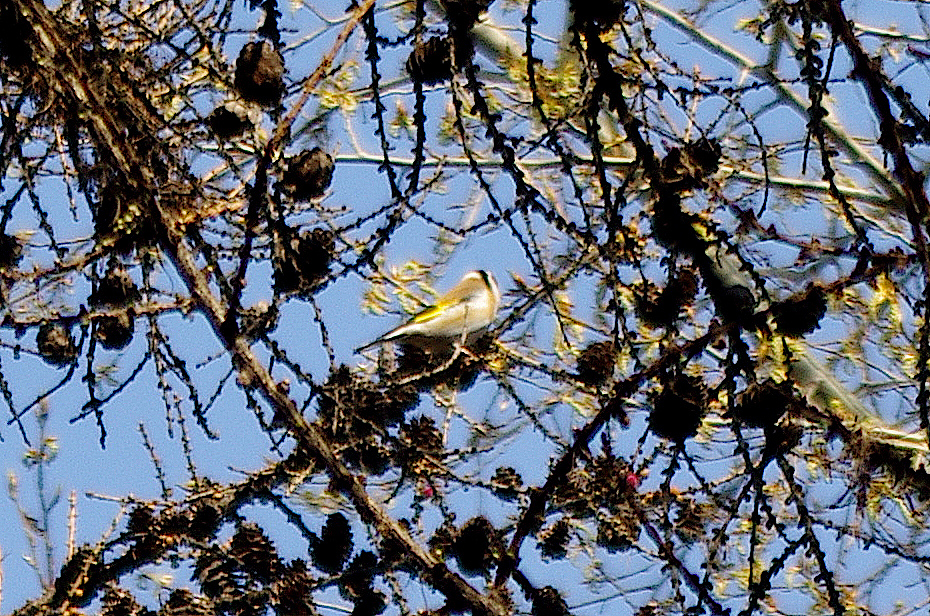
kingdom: Animalia
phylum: Chordata
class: Aves
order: Passeriformes
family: Fringillidae
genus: Carduelis
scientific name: Carduelis carduelis
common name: European goldfinch
